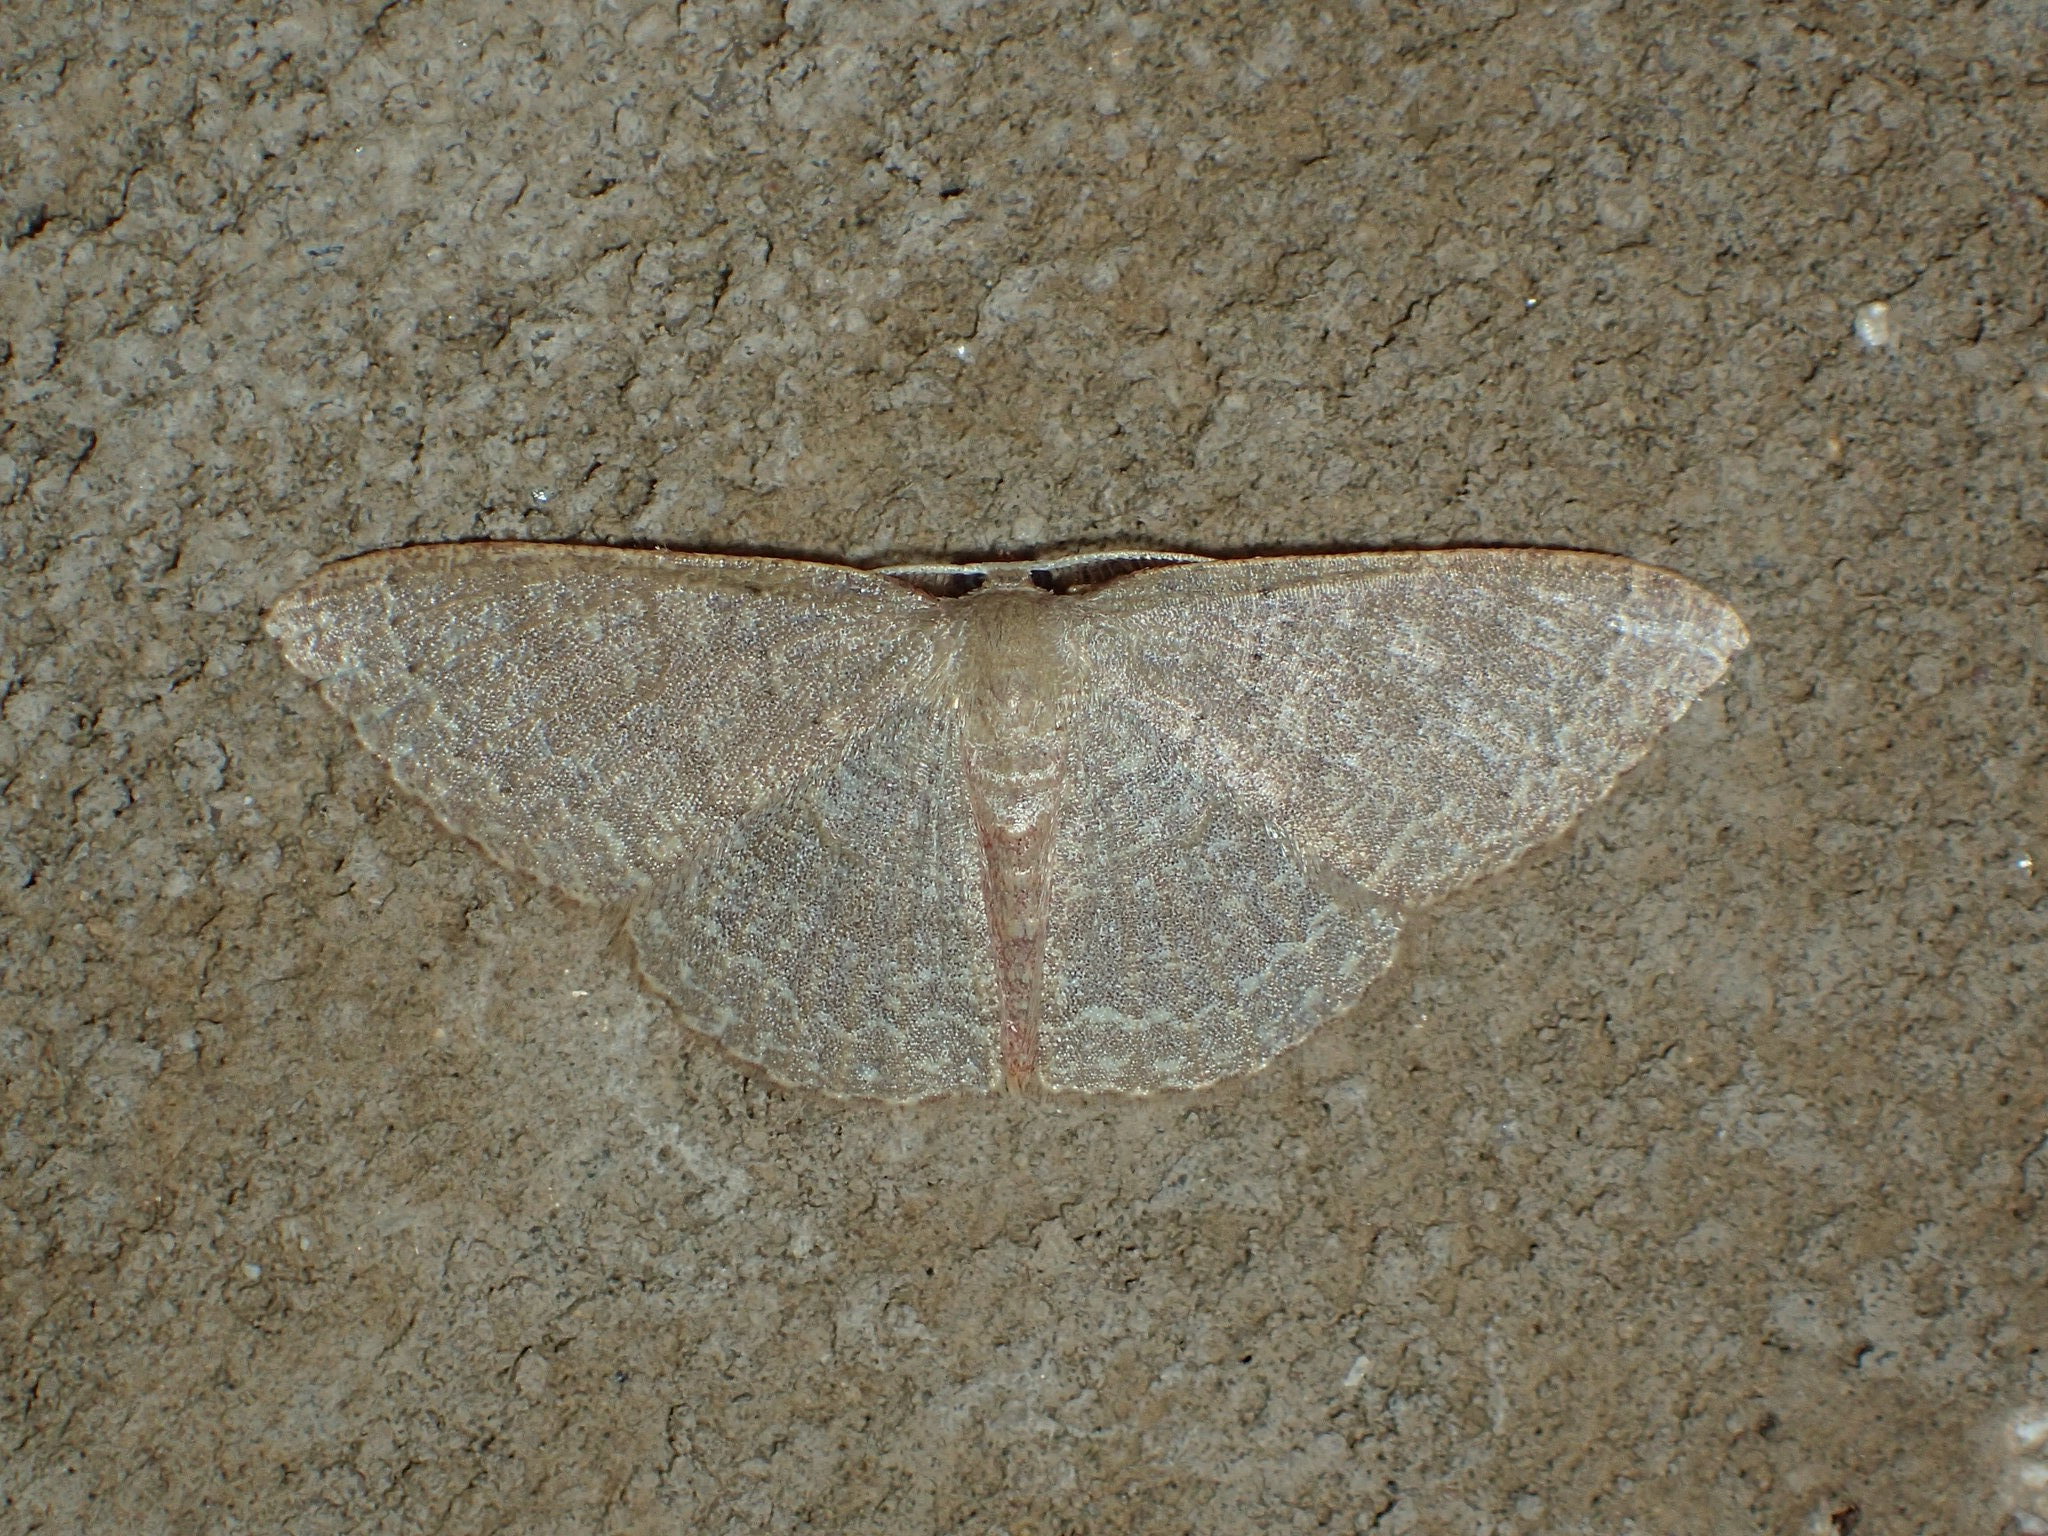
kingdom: Animalia
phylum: Arthropoda
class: Insecta
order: Lepidoptera
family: Geometridae
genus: Pleuroprucha
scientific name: Pleuroprucha insulsaria
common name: Common tan wave
